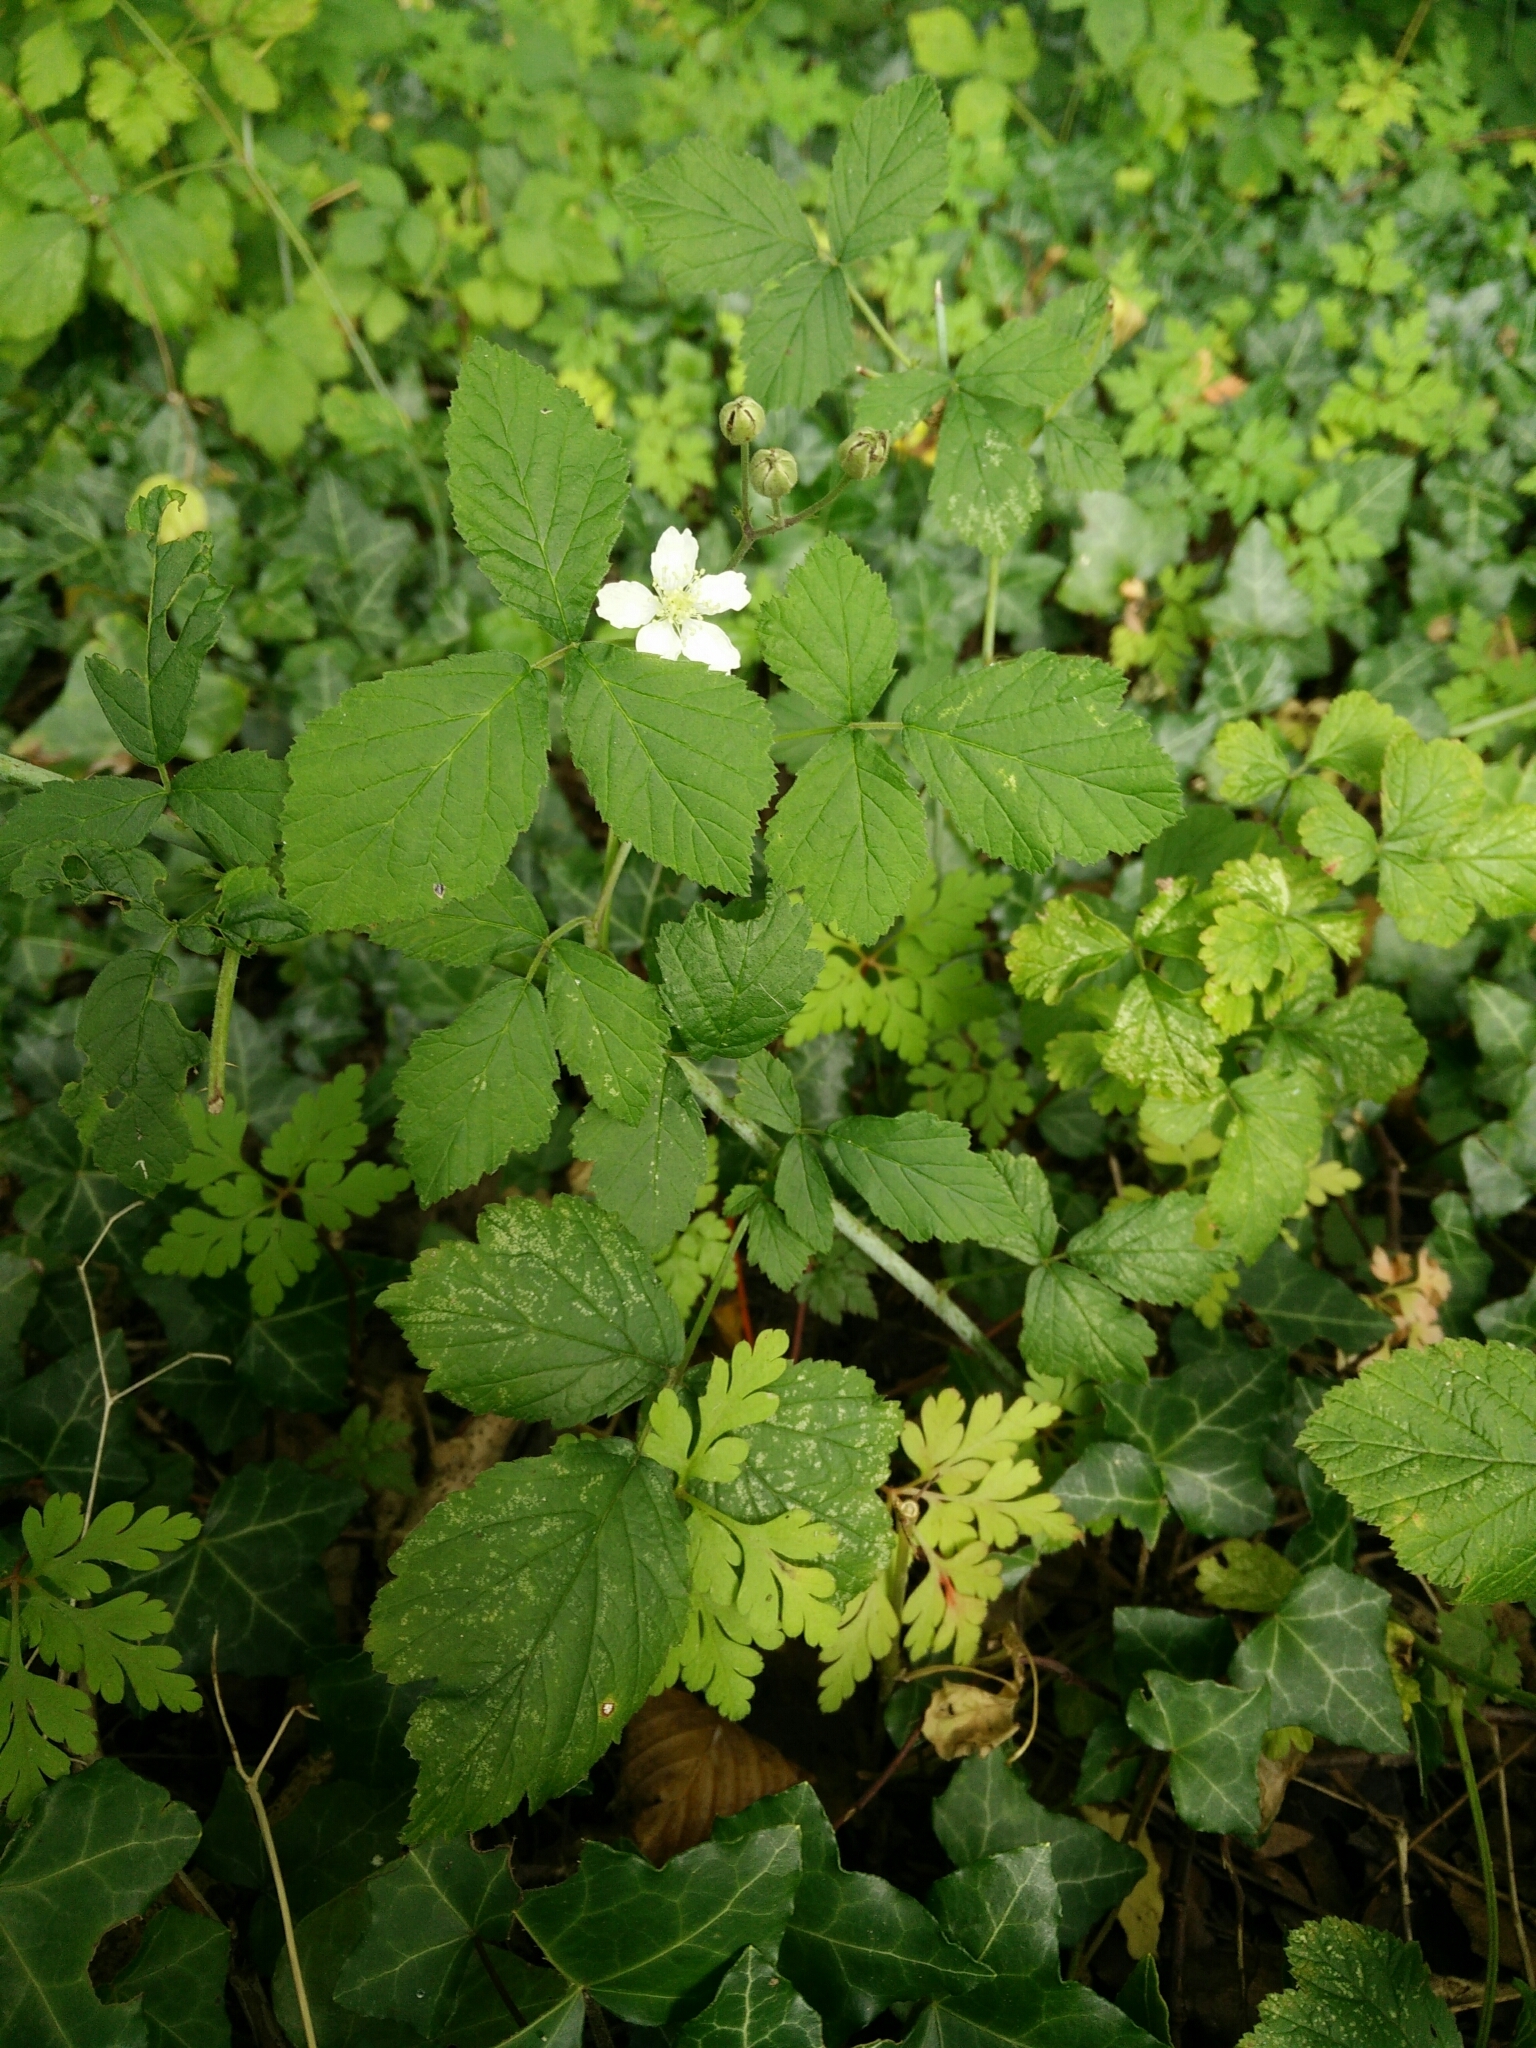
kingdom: Plantae
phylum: Tracheophyta
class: Magnoliopsida
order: Rosales
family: Rosaceae
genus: Rubus
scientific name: Rubus caesius
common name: Dewberry
